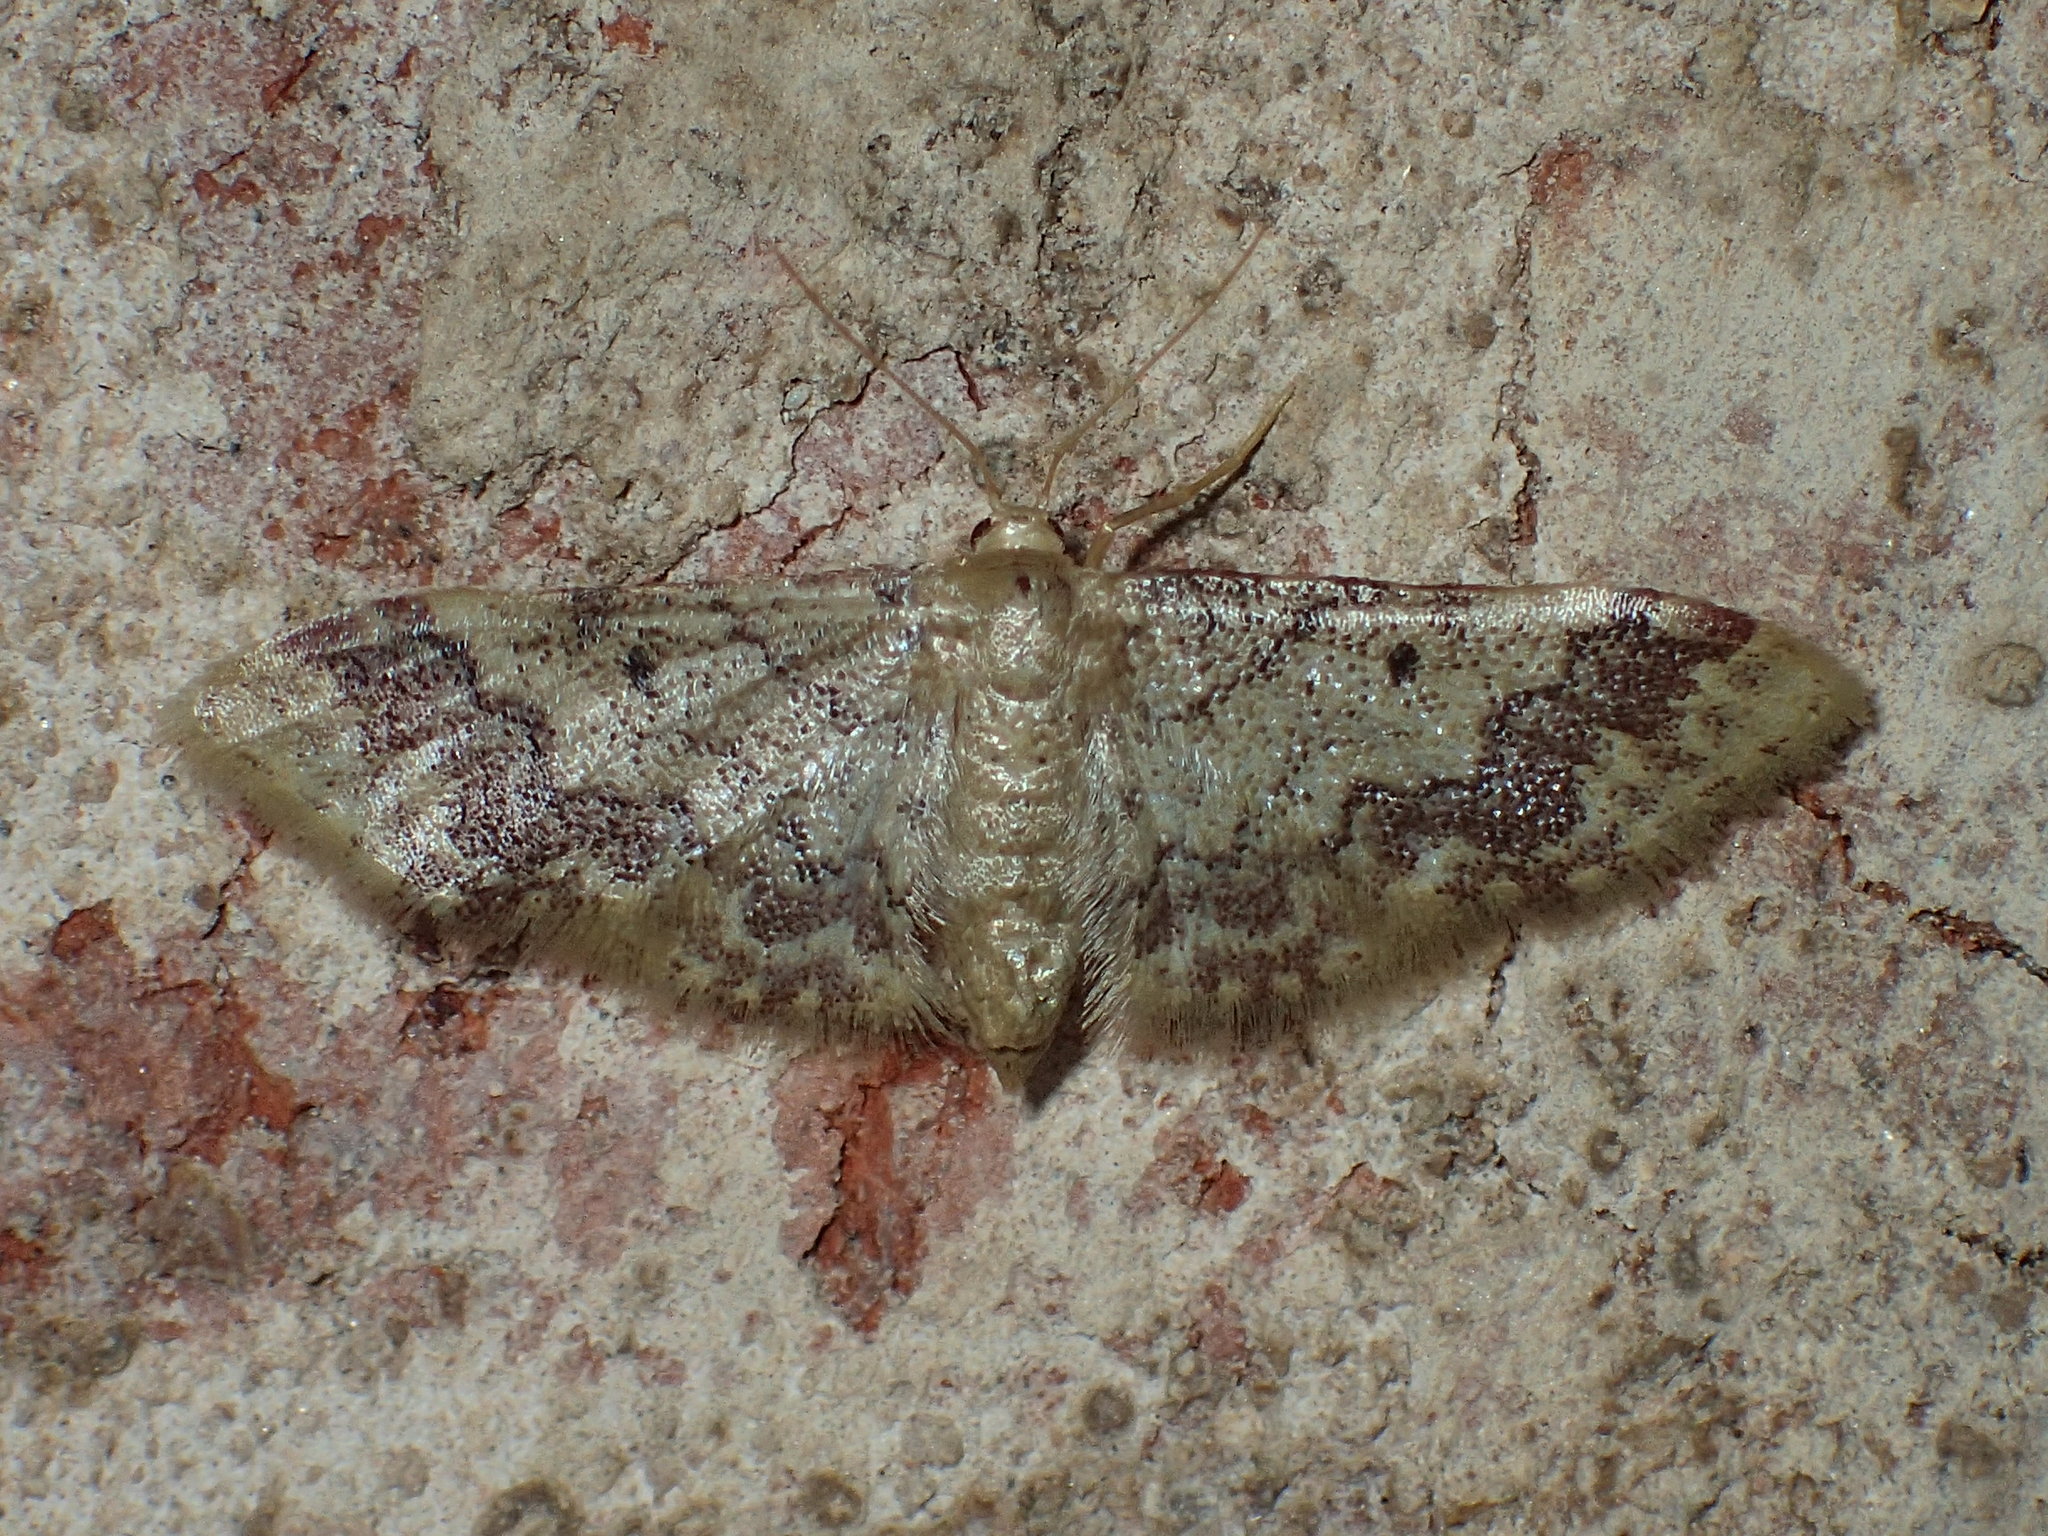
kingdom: Animalia
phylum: Arthropoda
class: Insecta
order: Lepidoptera
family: Geometridae
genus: Idaea
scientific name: Idaea furciferata
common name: Notch-winged wave
